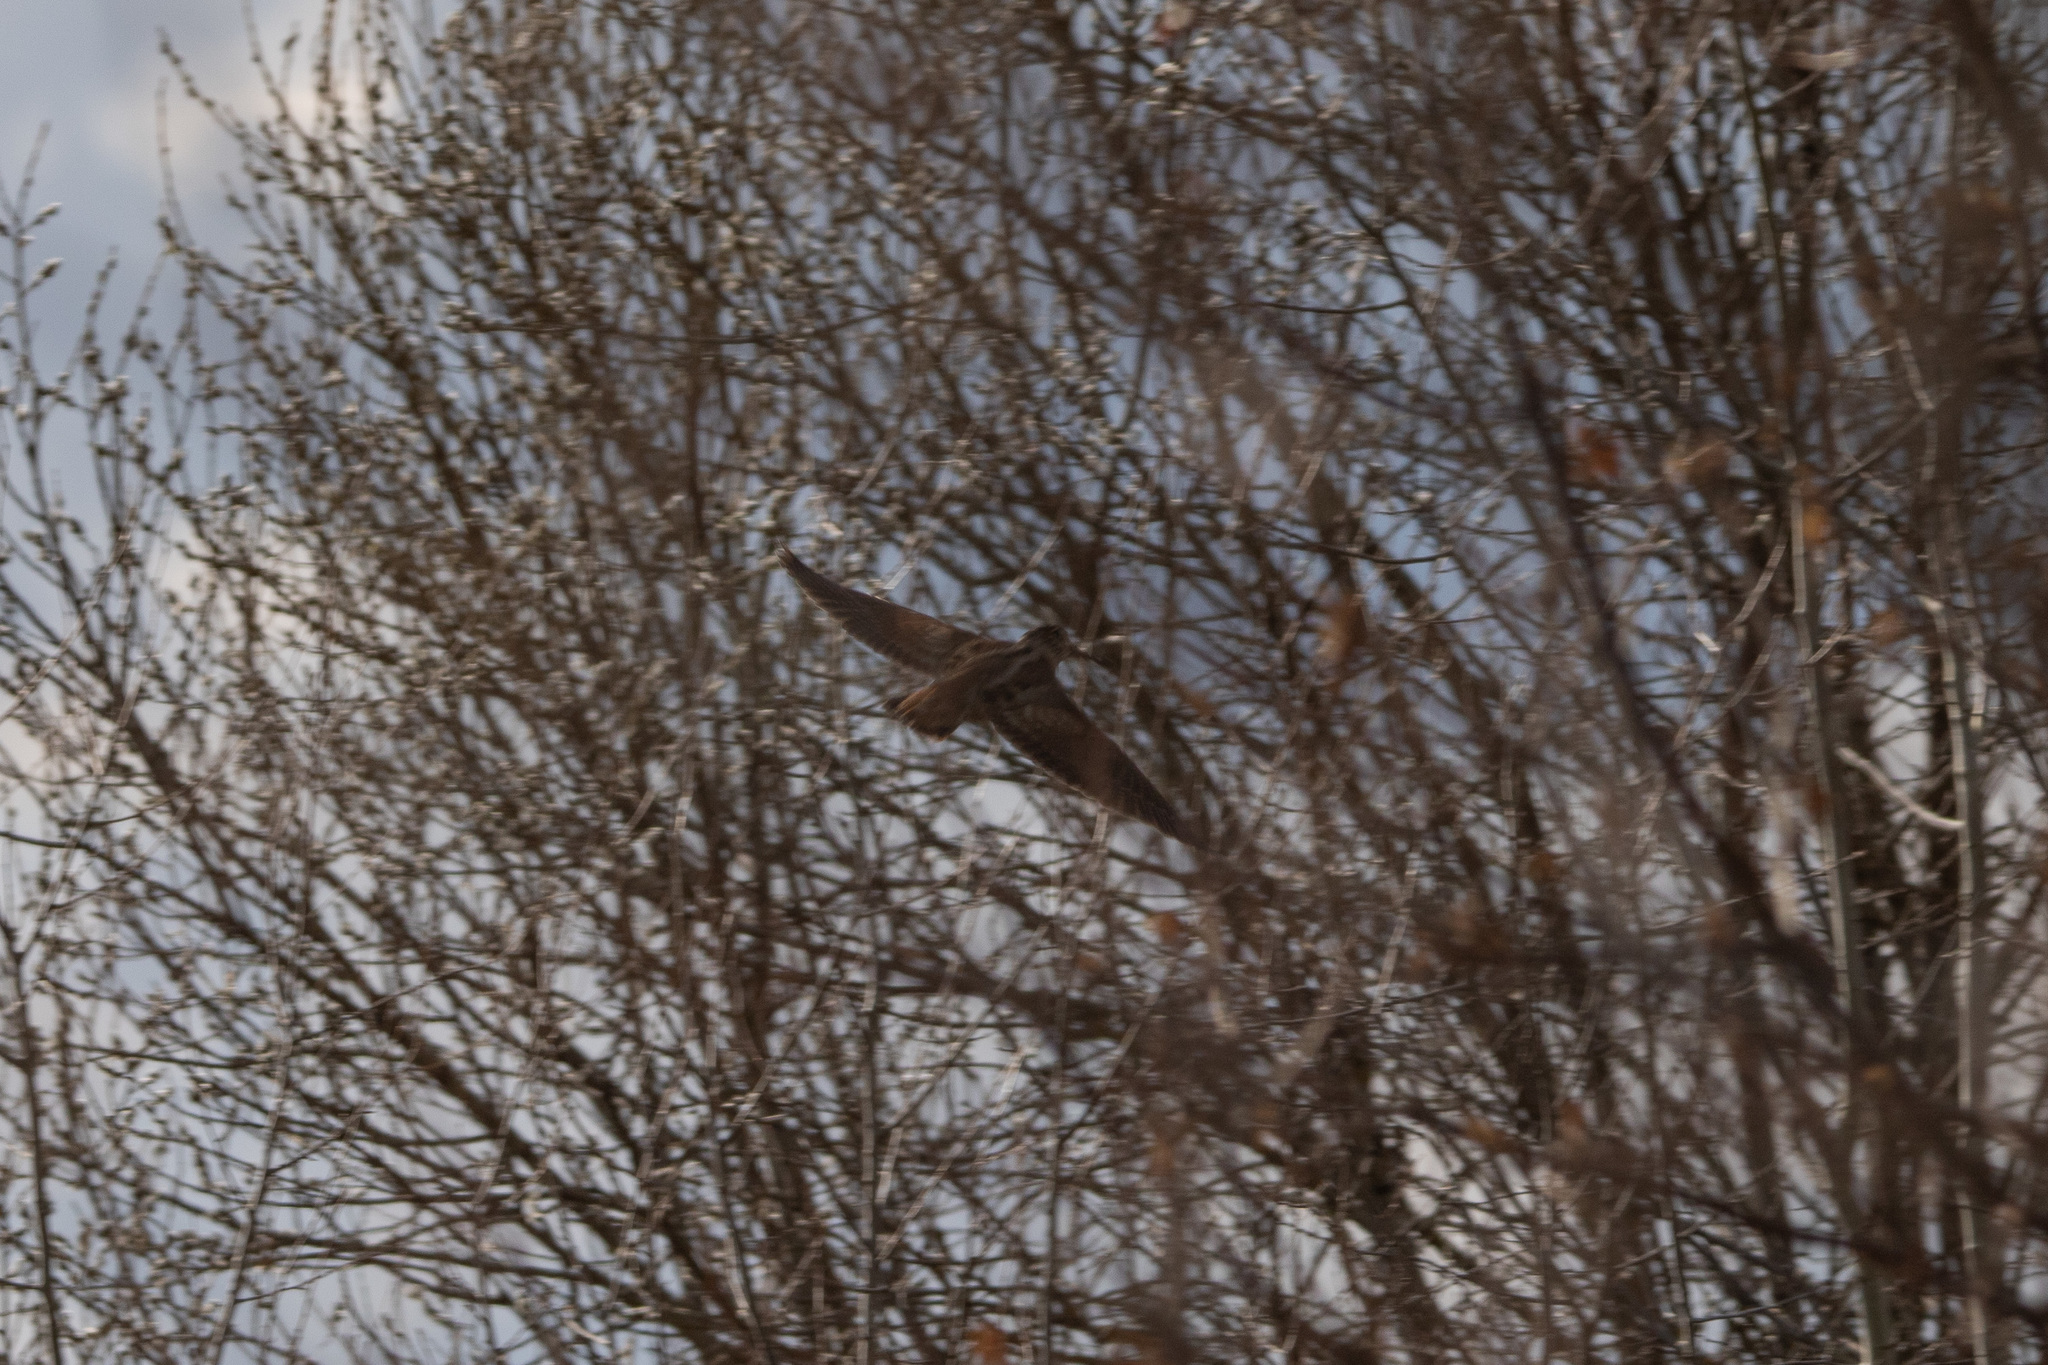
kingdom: Animalia
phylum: Chordata
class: Aves
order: Charadriiformes
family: Scolopacidae
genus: Scolopax
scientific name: Scolopax rusticola
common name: Eurasian woodcock
